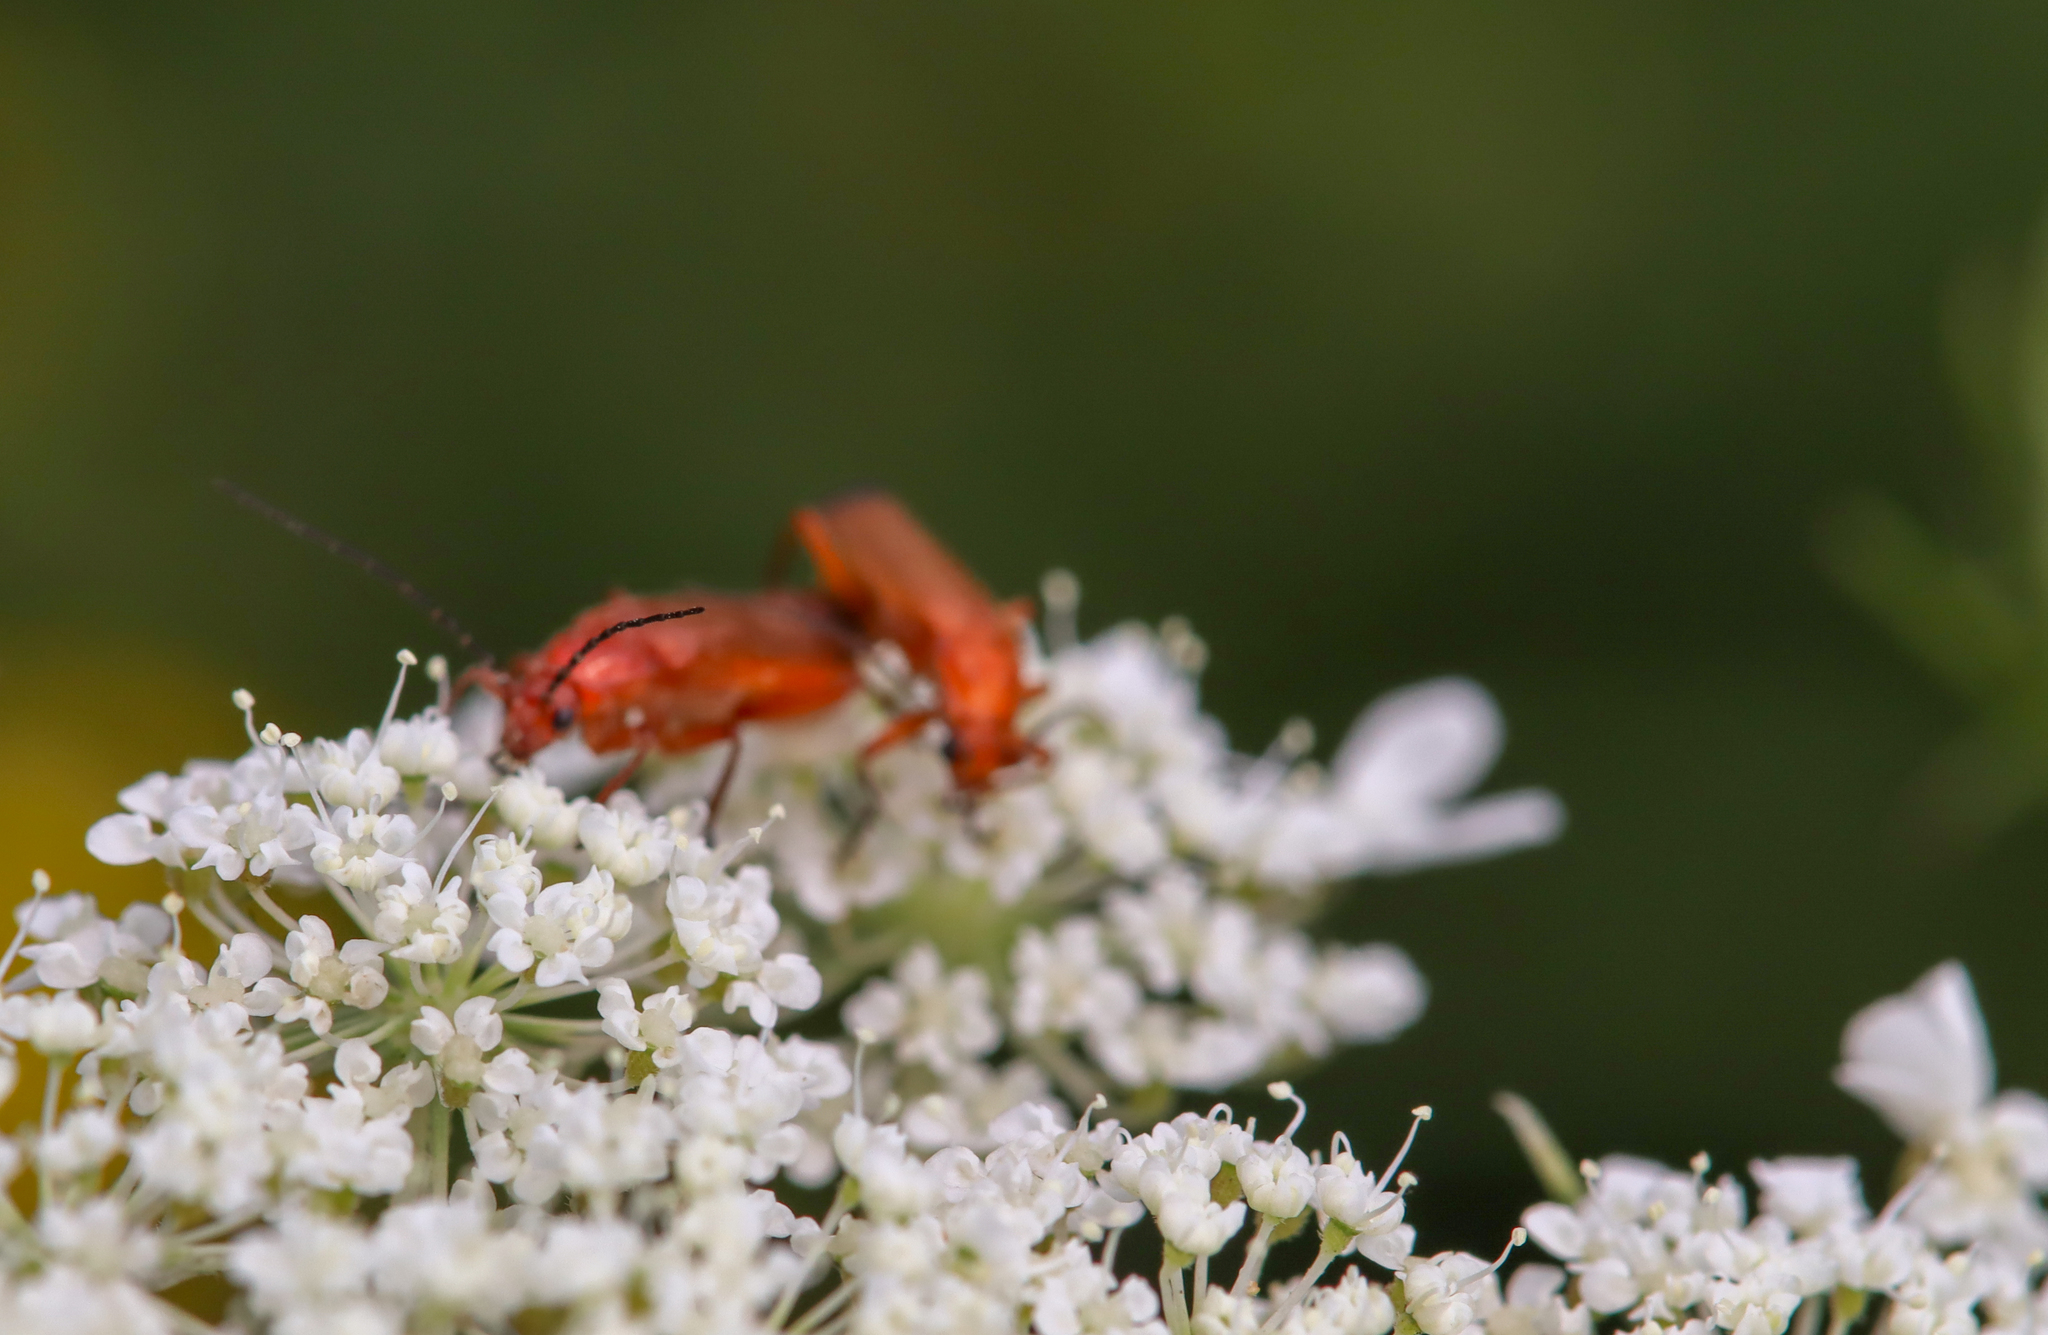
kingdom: Animalia
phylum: Arthropoda
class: Insecta
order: Coleoptera
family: Cantharidae
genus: Rhagonycha
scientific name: Rhagonycha fulva
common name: Common red soldier beetle
